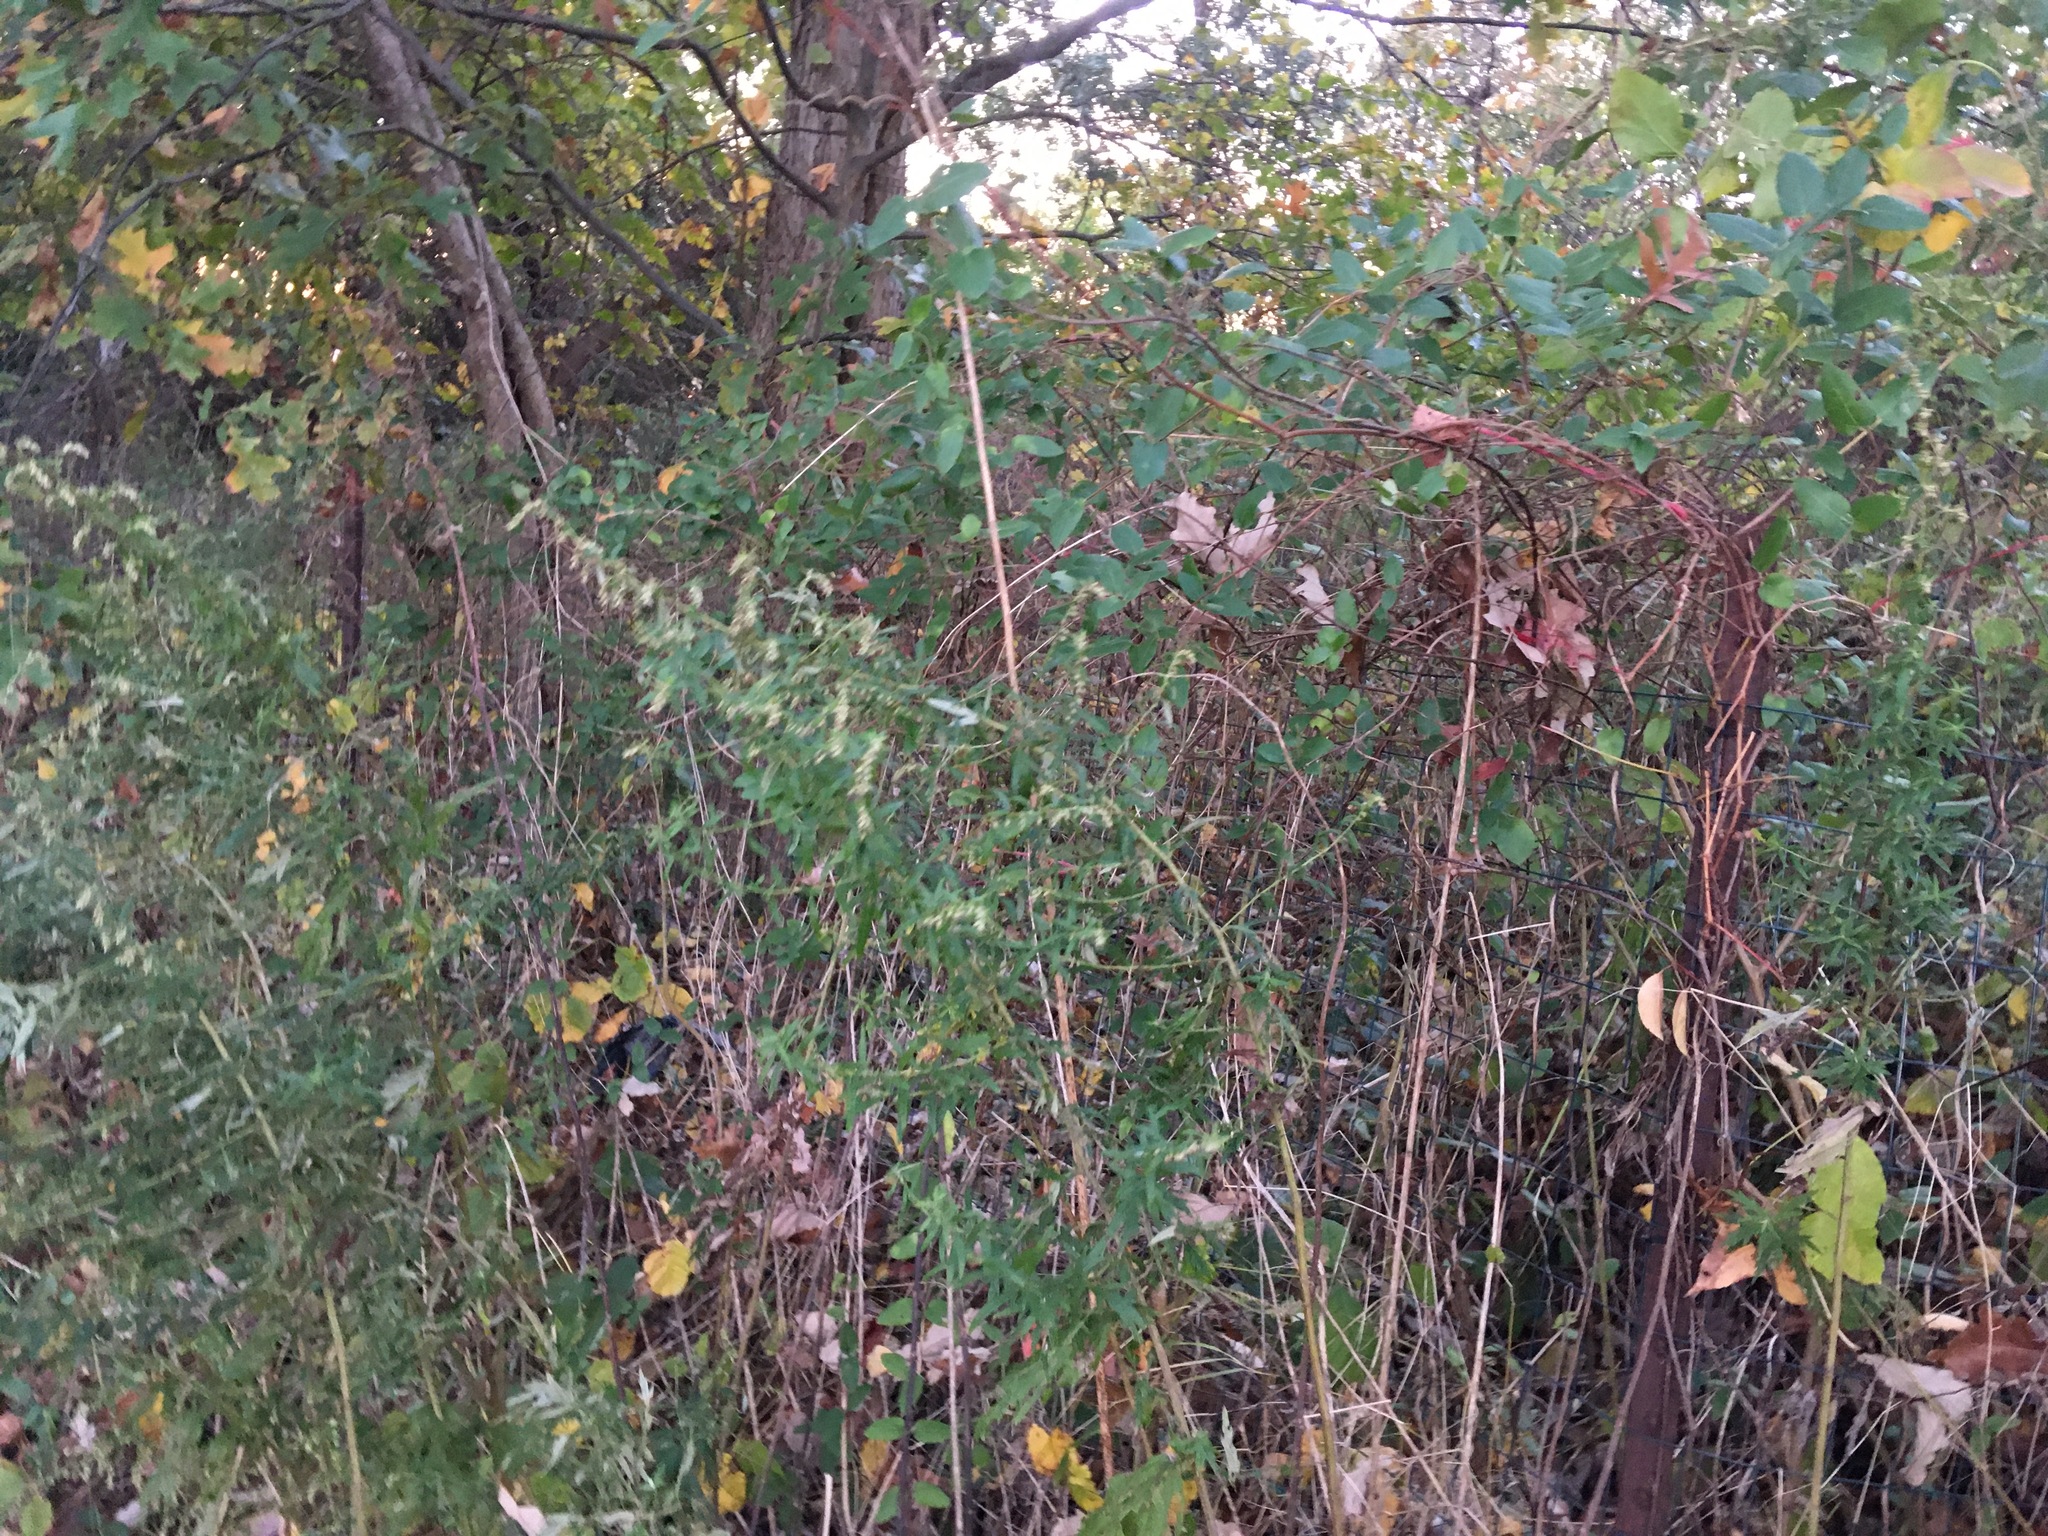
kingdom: Plantae
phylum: Tracheophyta
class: Magnoliopsida
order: Asterales
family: Asteraceae
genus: Artemisia
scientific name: Artemisia vulgaris
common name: Mugwort
